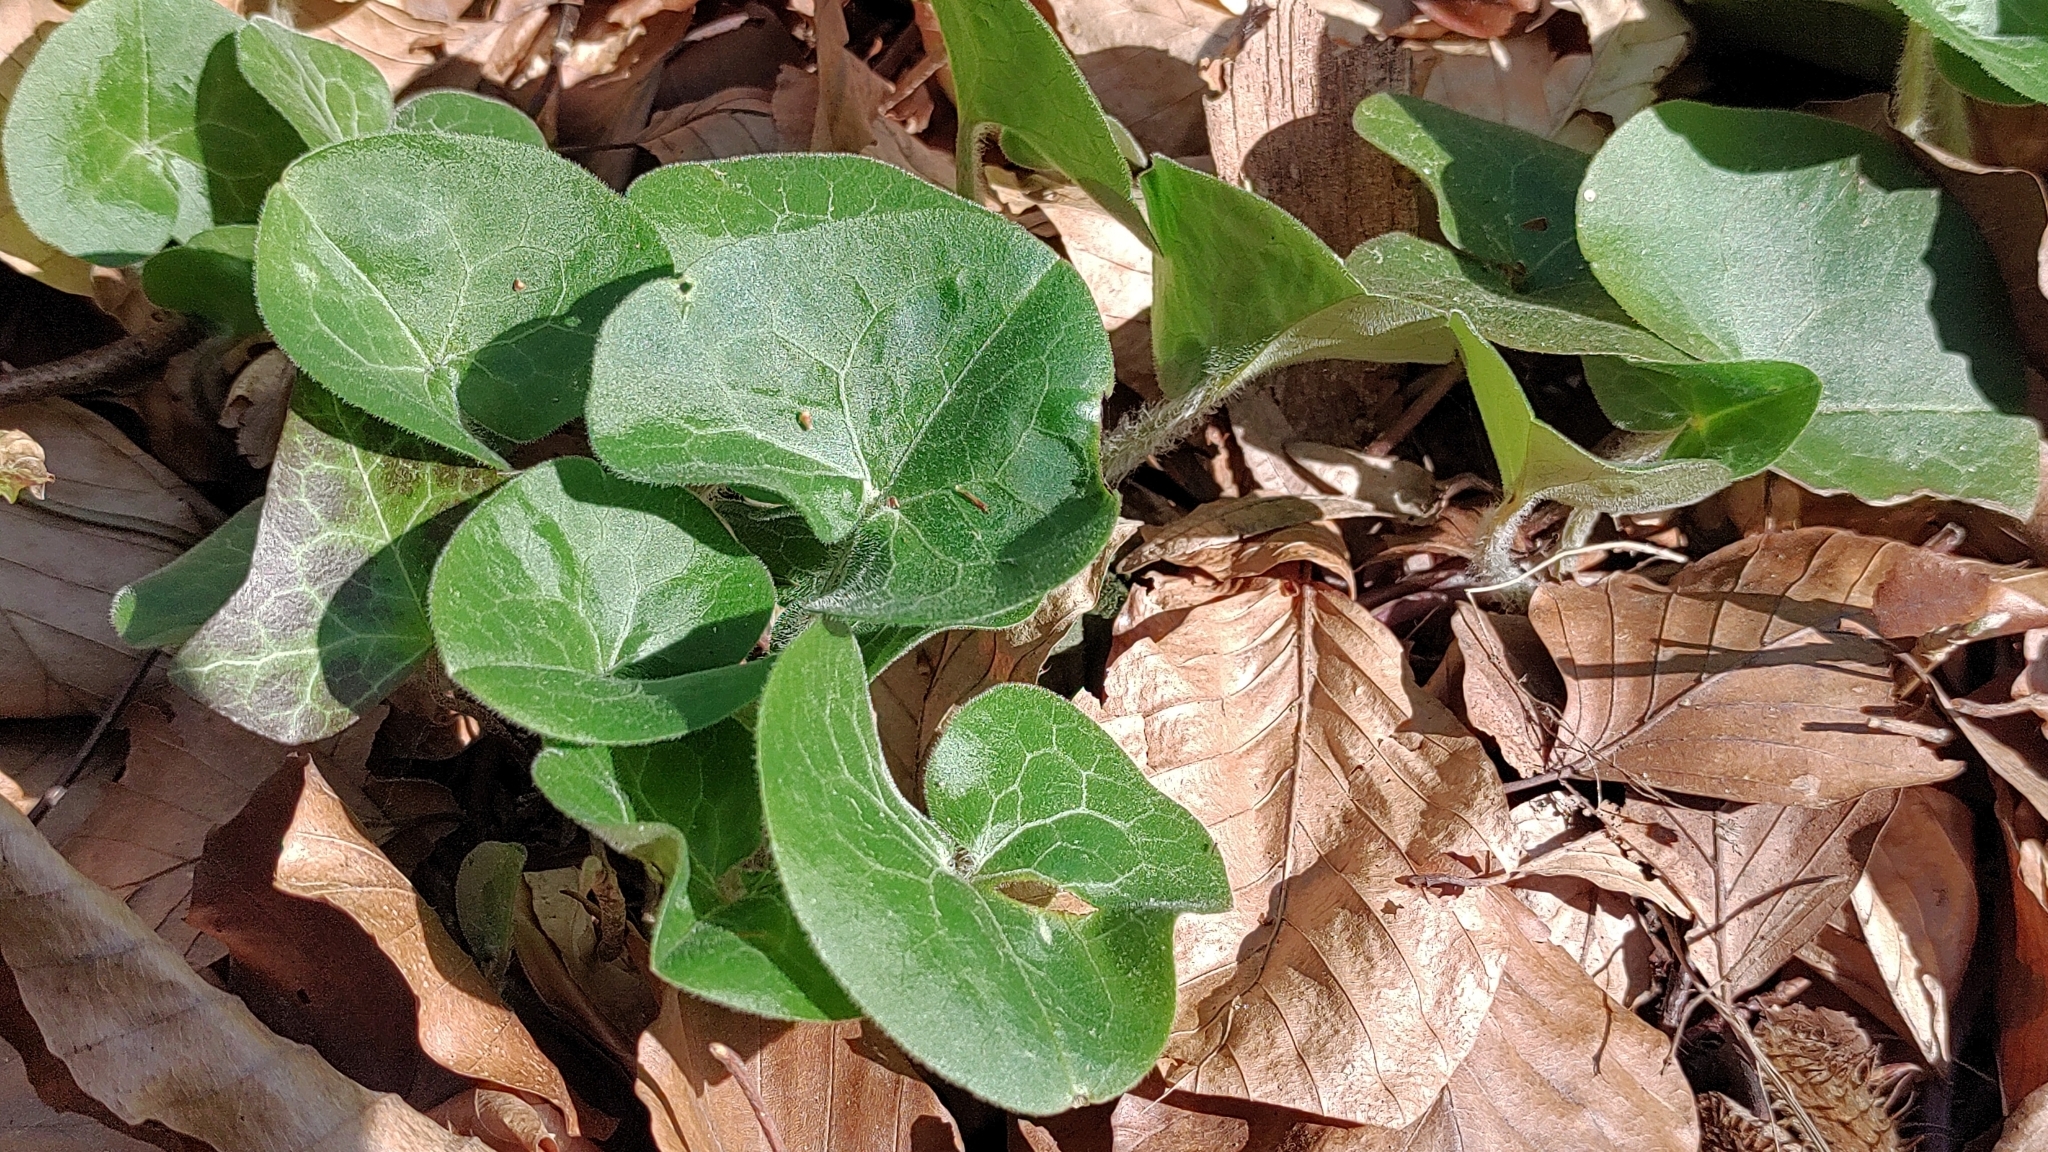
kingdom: Plantae
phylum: Tracheophyta
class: Magnoliopsida
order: Piperales
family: Aristolochiaceae
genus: Asarum
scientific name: Asarum europaeum
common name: Asarabacca
